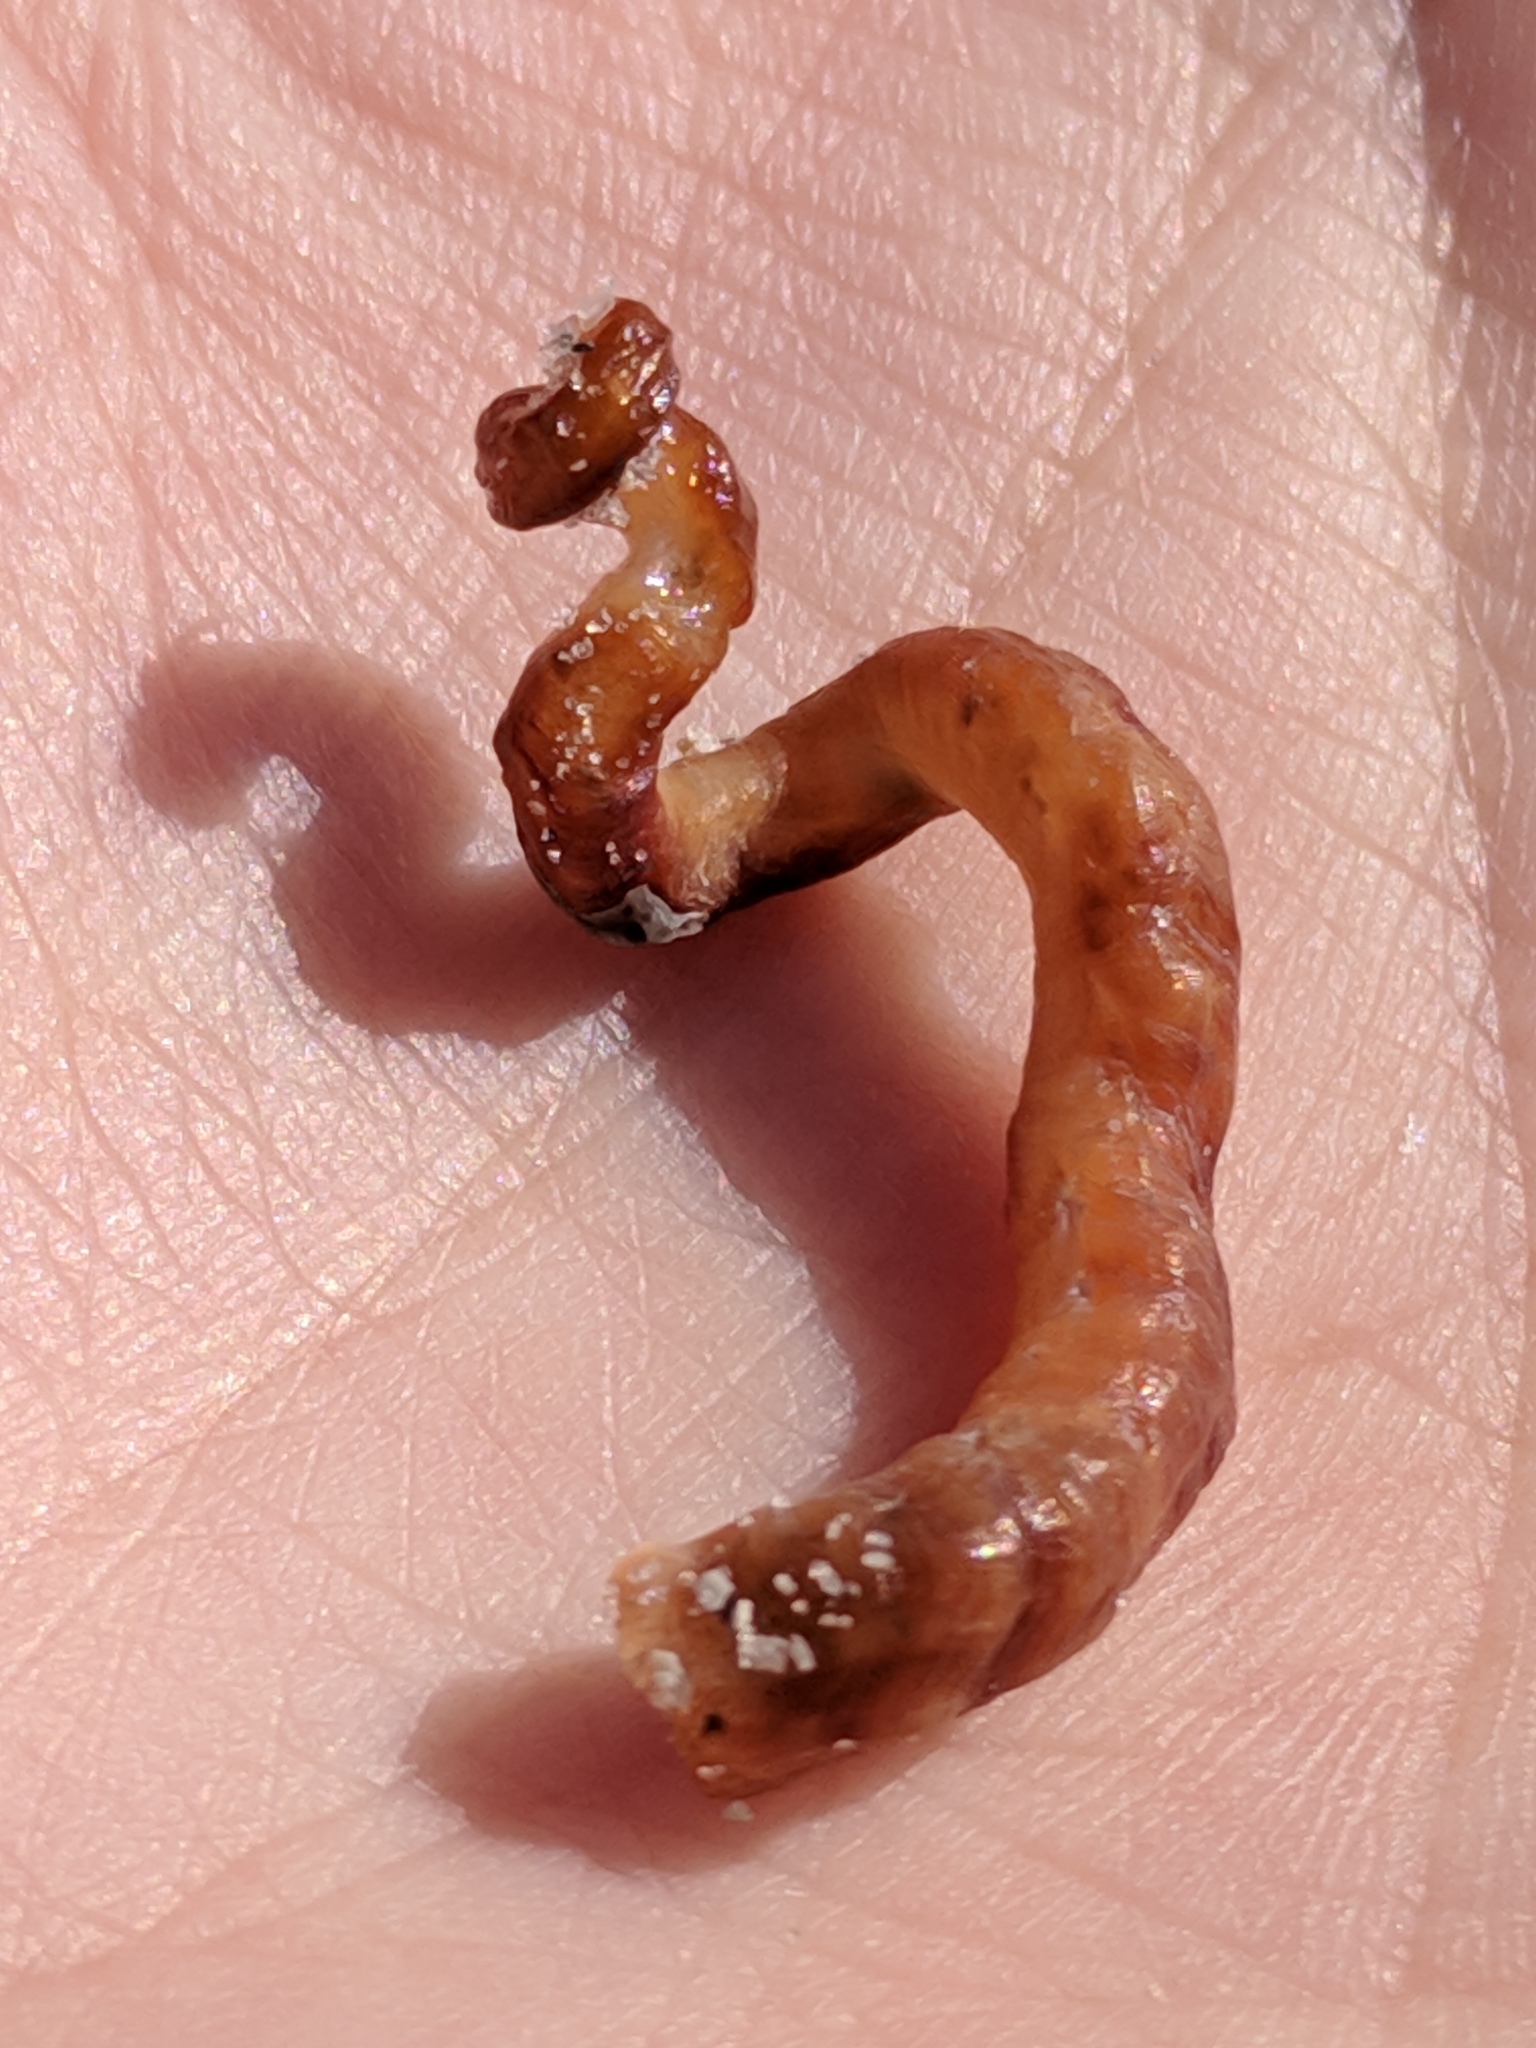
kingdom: Animalia
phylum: Mollusca
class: Gastropoda
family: Turritellidae
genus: Vermicularia
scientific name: Vermicularia lumbricalis
